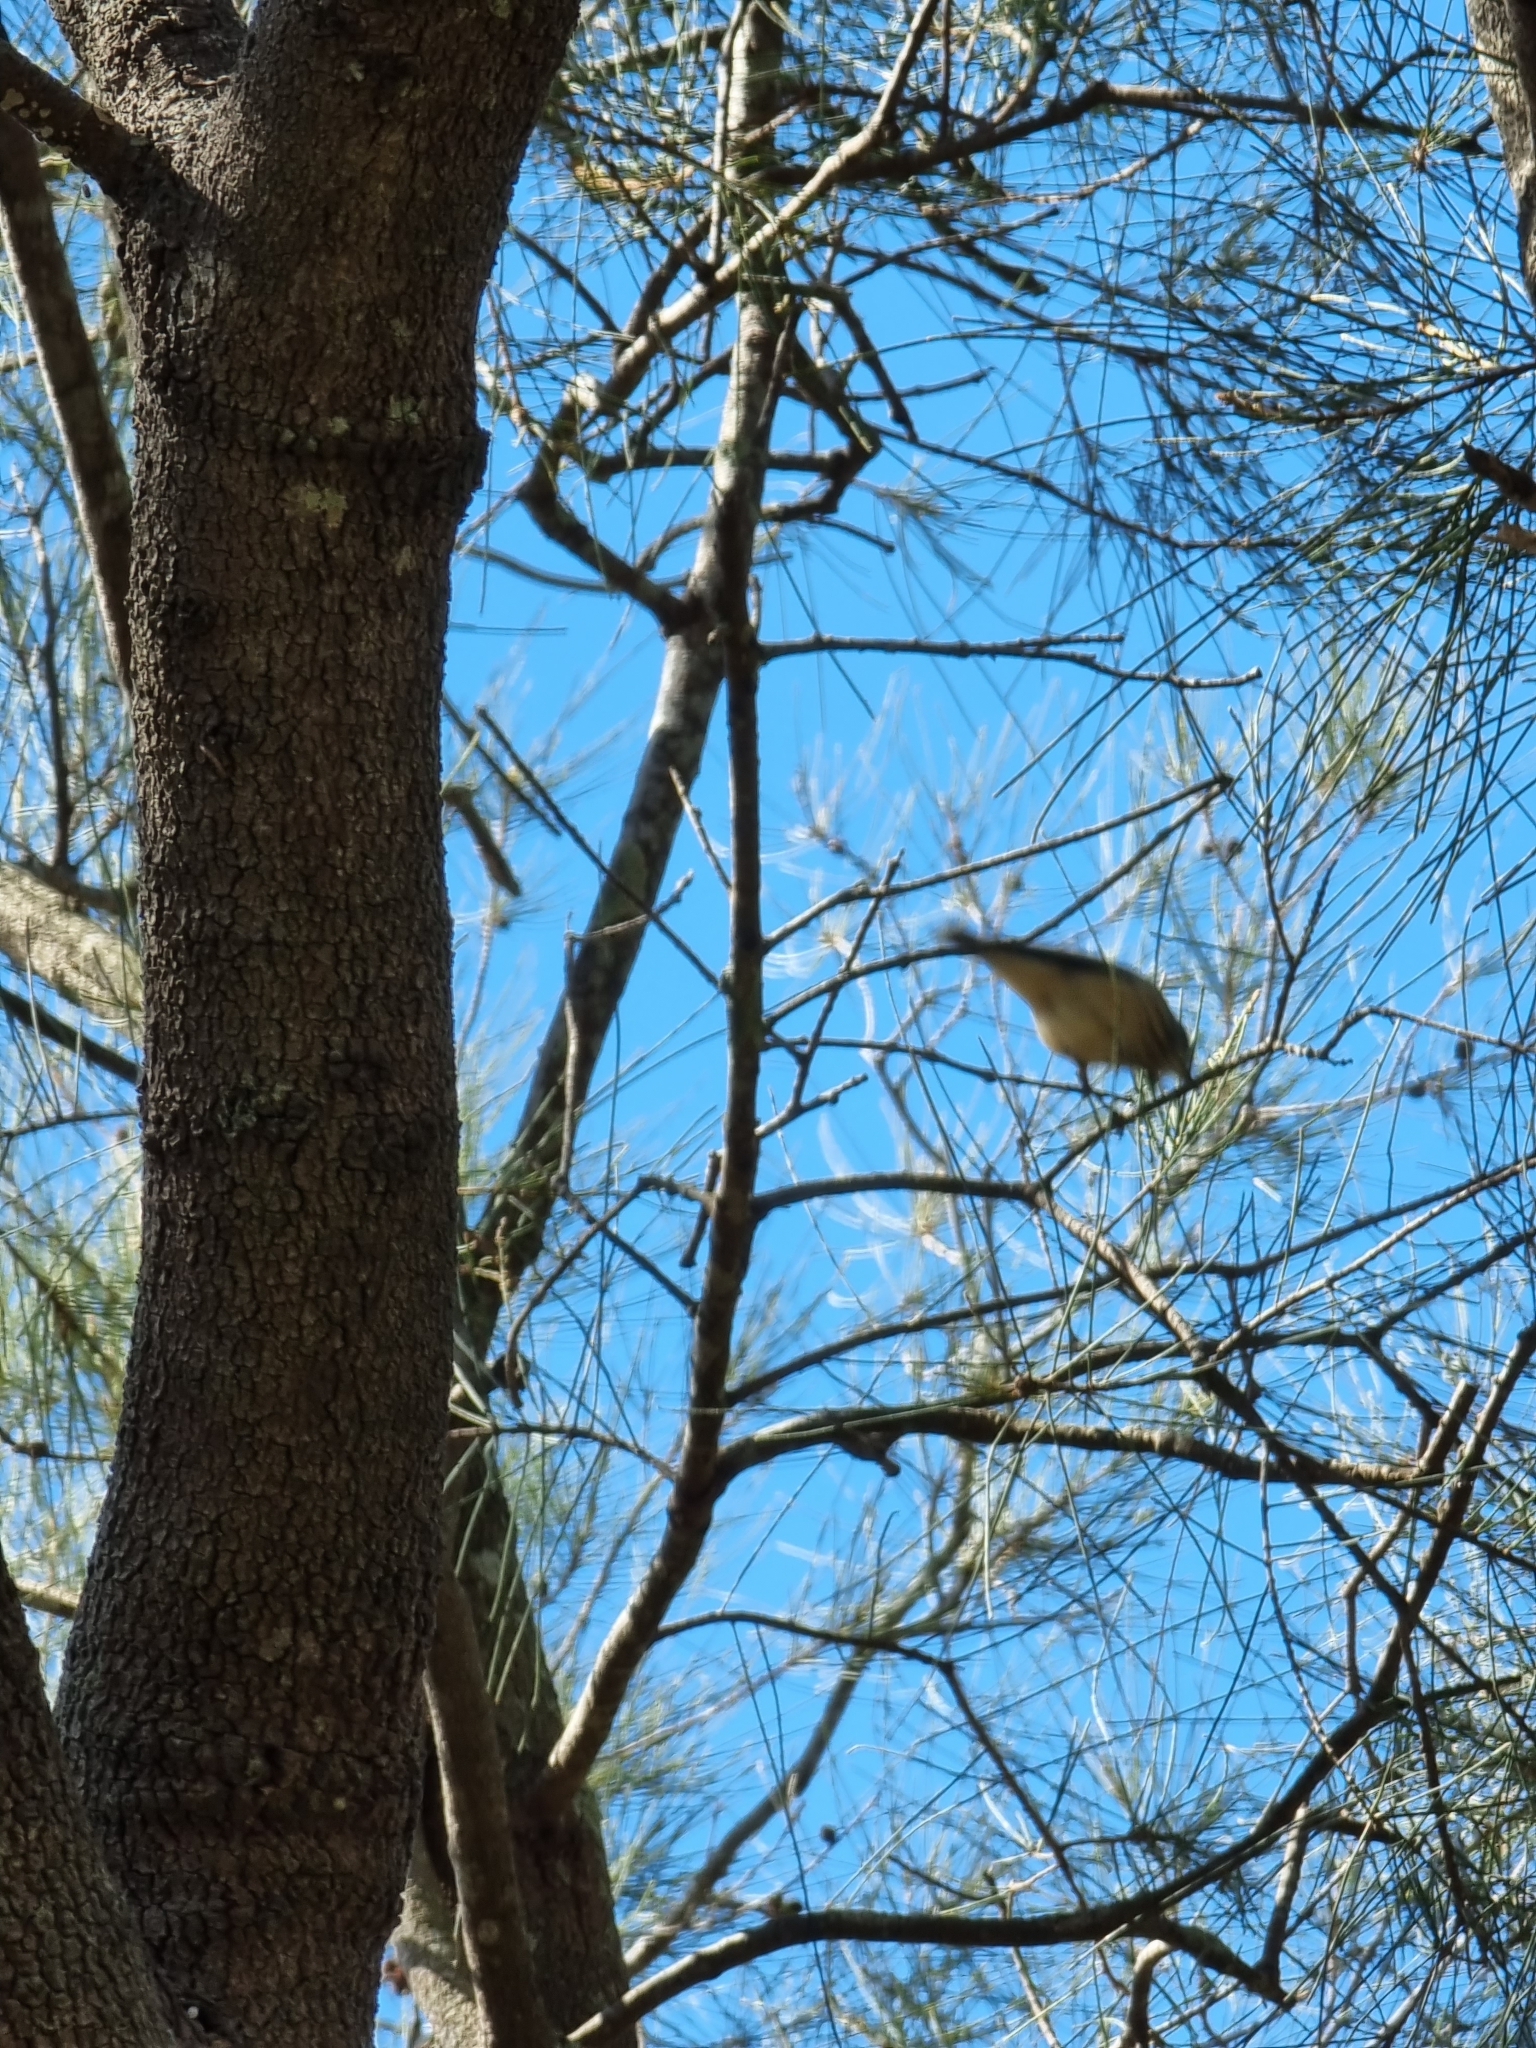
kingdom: Animalia
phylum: Chordata
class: Aves
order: Passeriformes
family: Pachycephalidae
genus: Pachycephala
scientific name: Pachycephala rufiventris
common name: Rufous whistler
